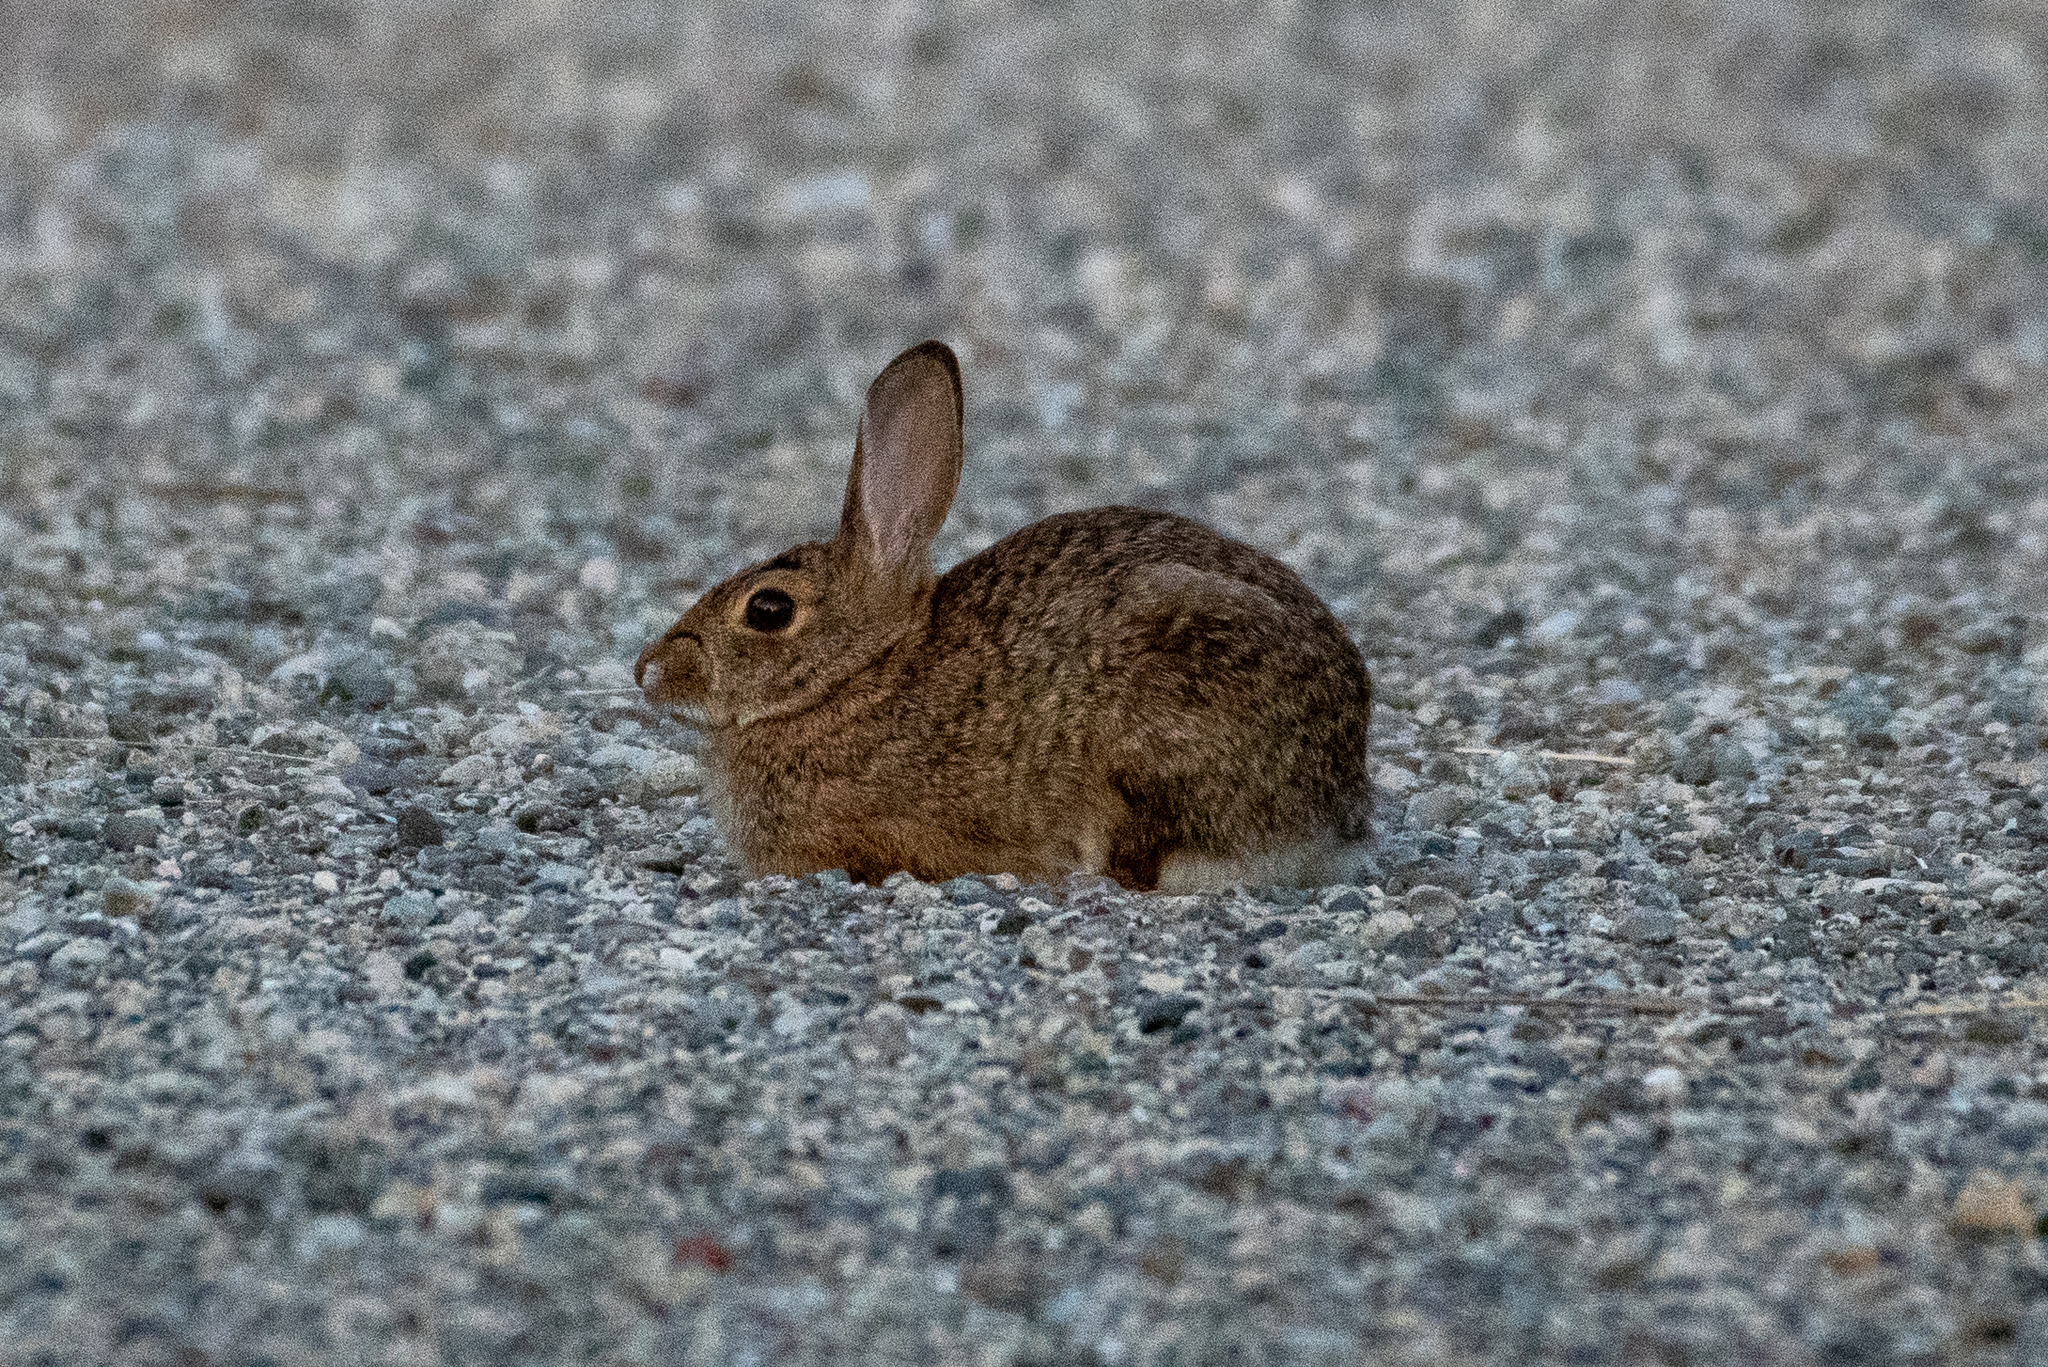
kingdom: Animalia
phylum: Chordata
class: Mammalia
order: Lagomorpha
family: Leporidae
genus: Sylvilagus
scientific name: Sylvilagus audubonii
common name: Desert cottontail
